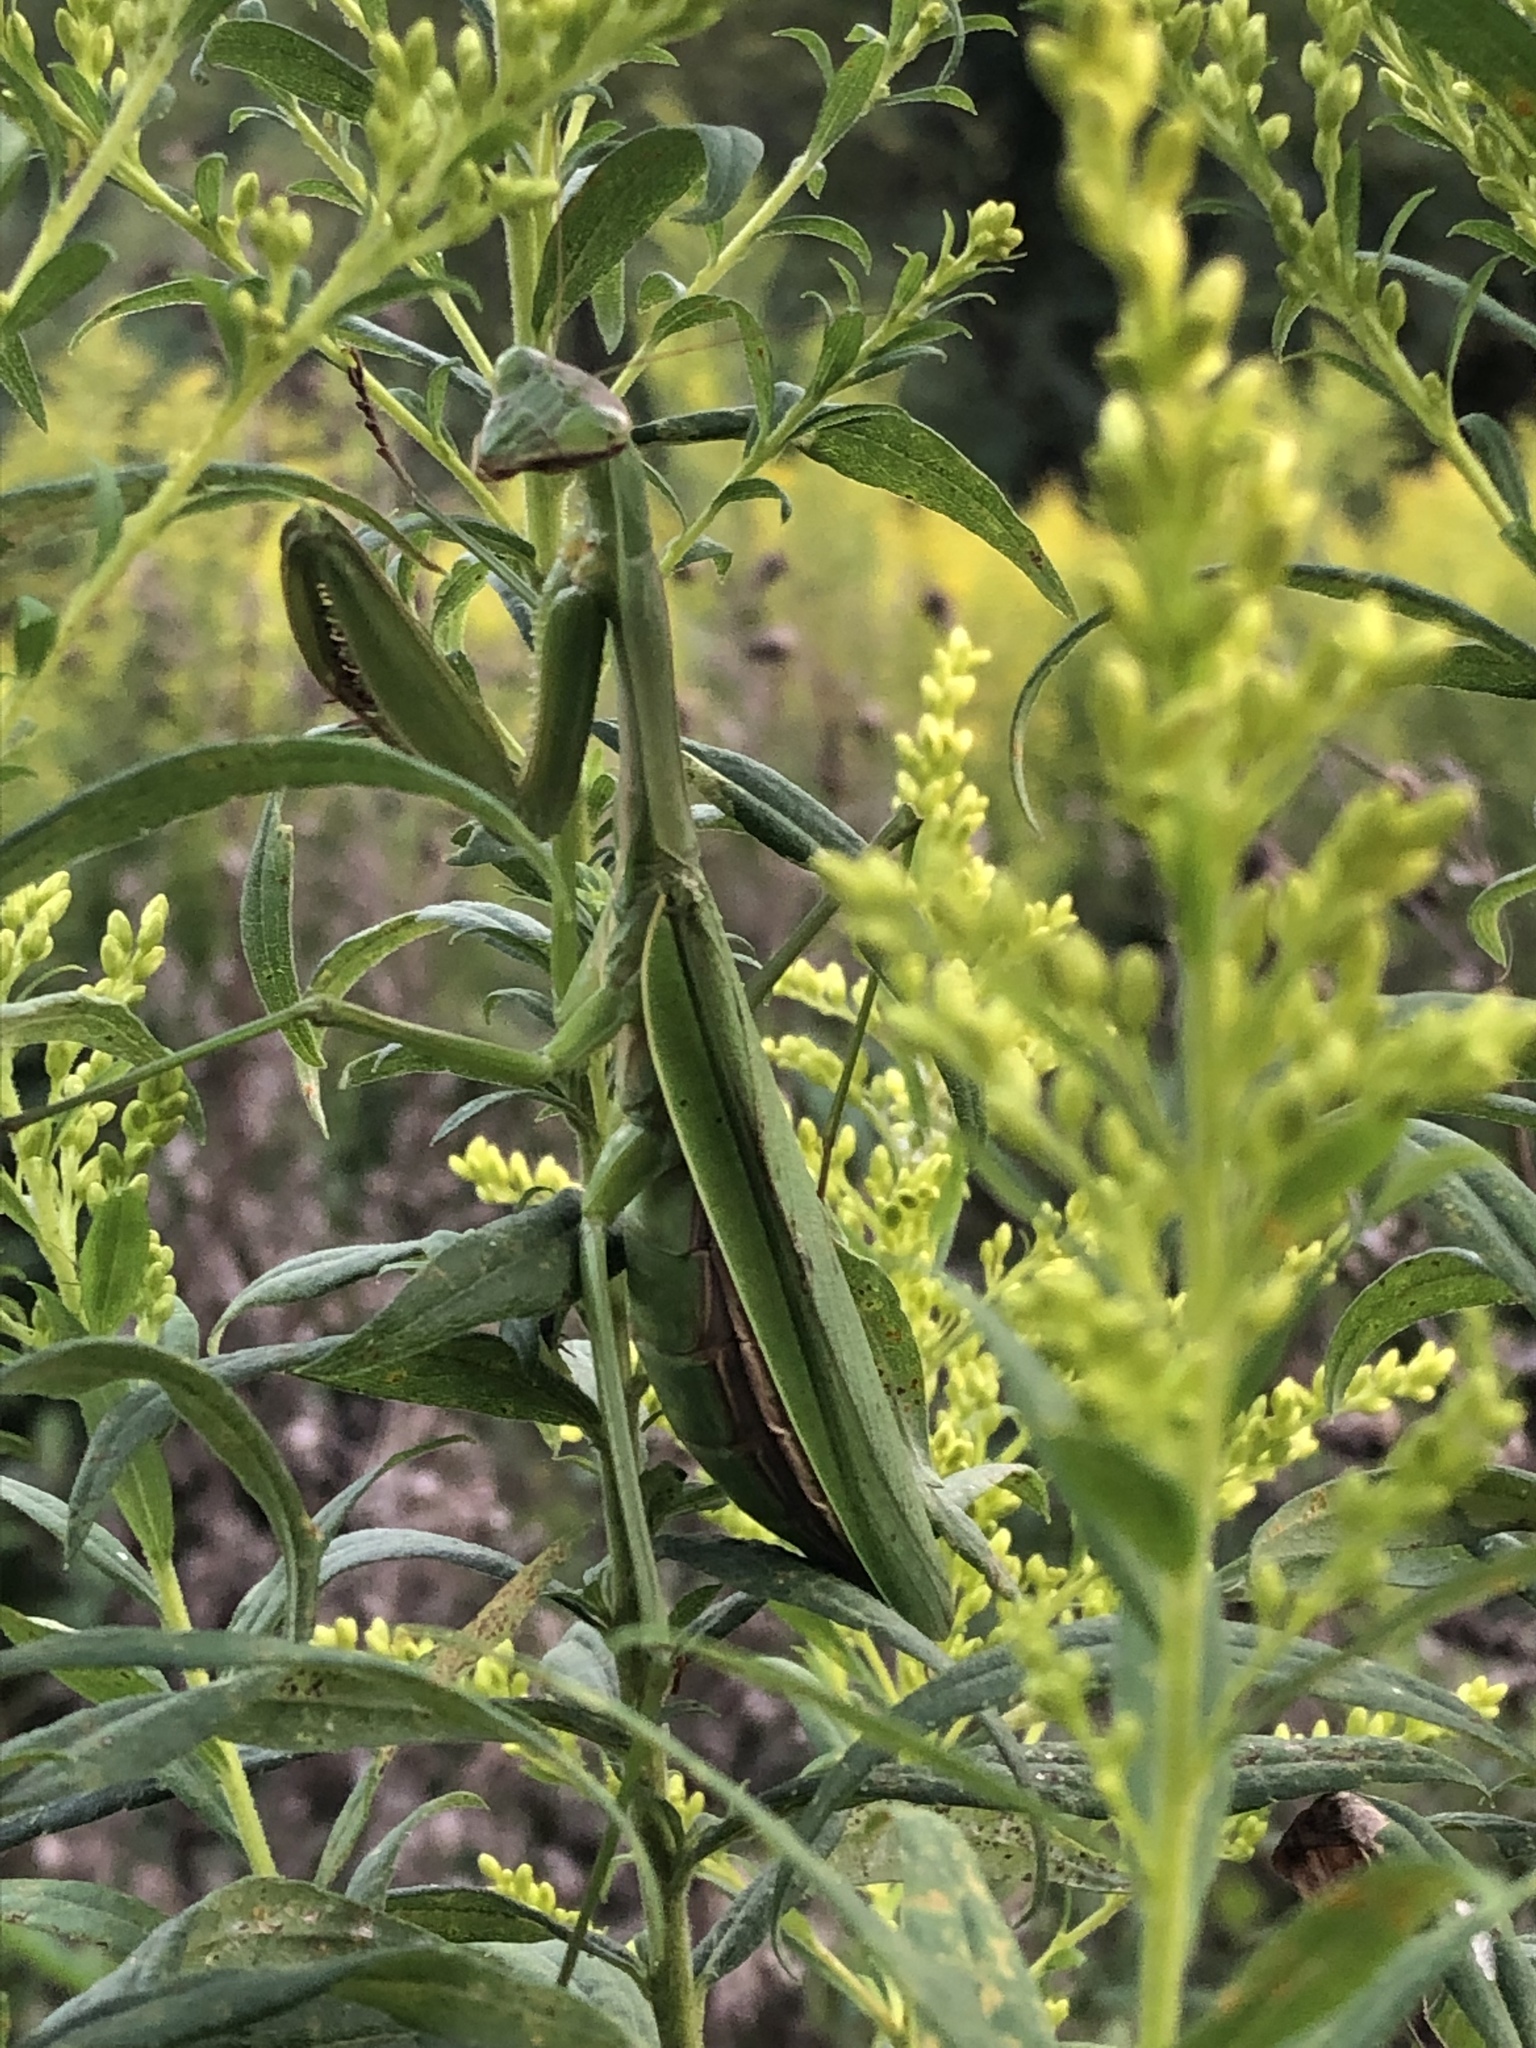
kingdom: Animalia
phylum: Arthropoda
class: Insecta
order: Mantodea
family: Mantidae
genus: Tenodera
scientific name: Tenodera sinensis
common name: Chinese mantis
